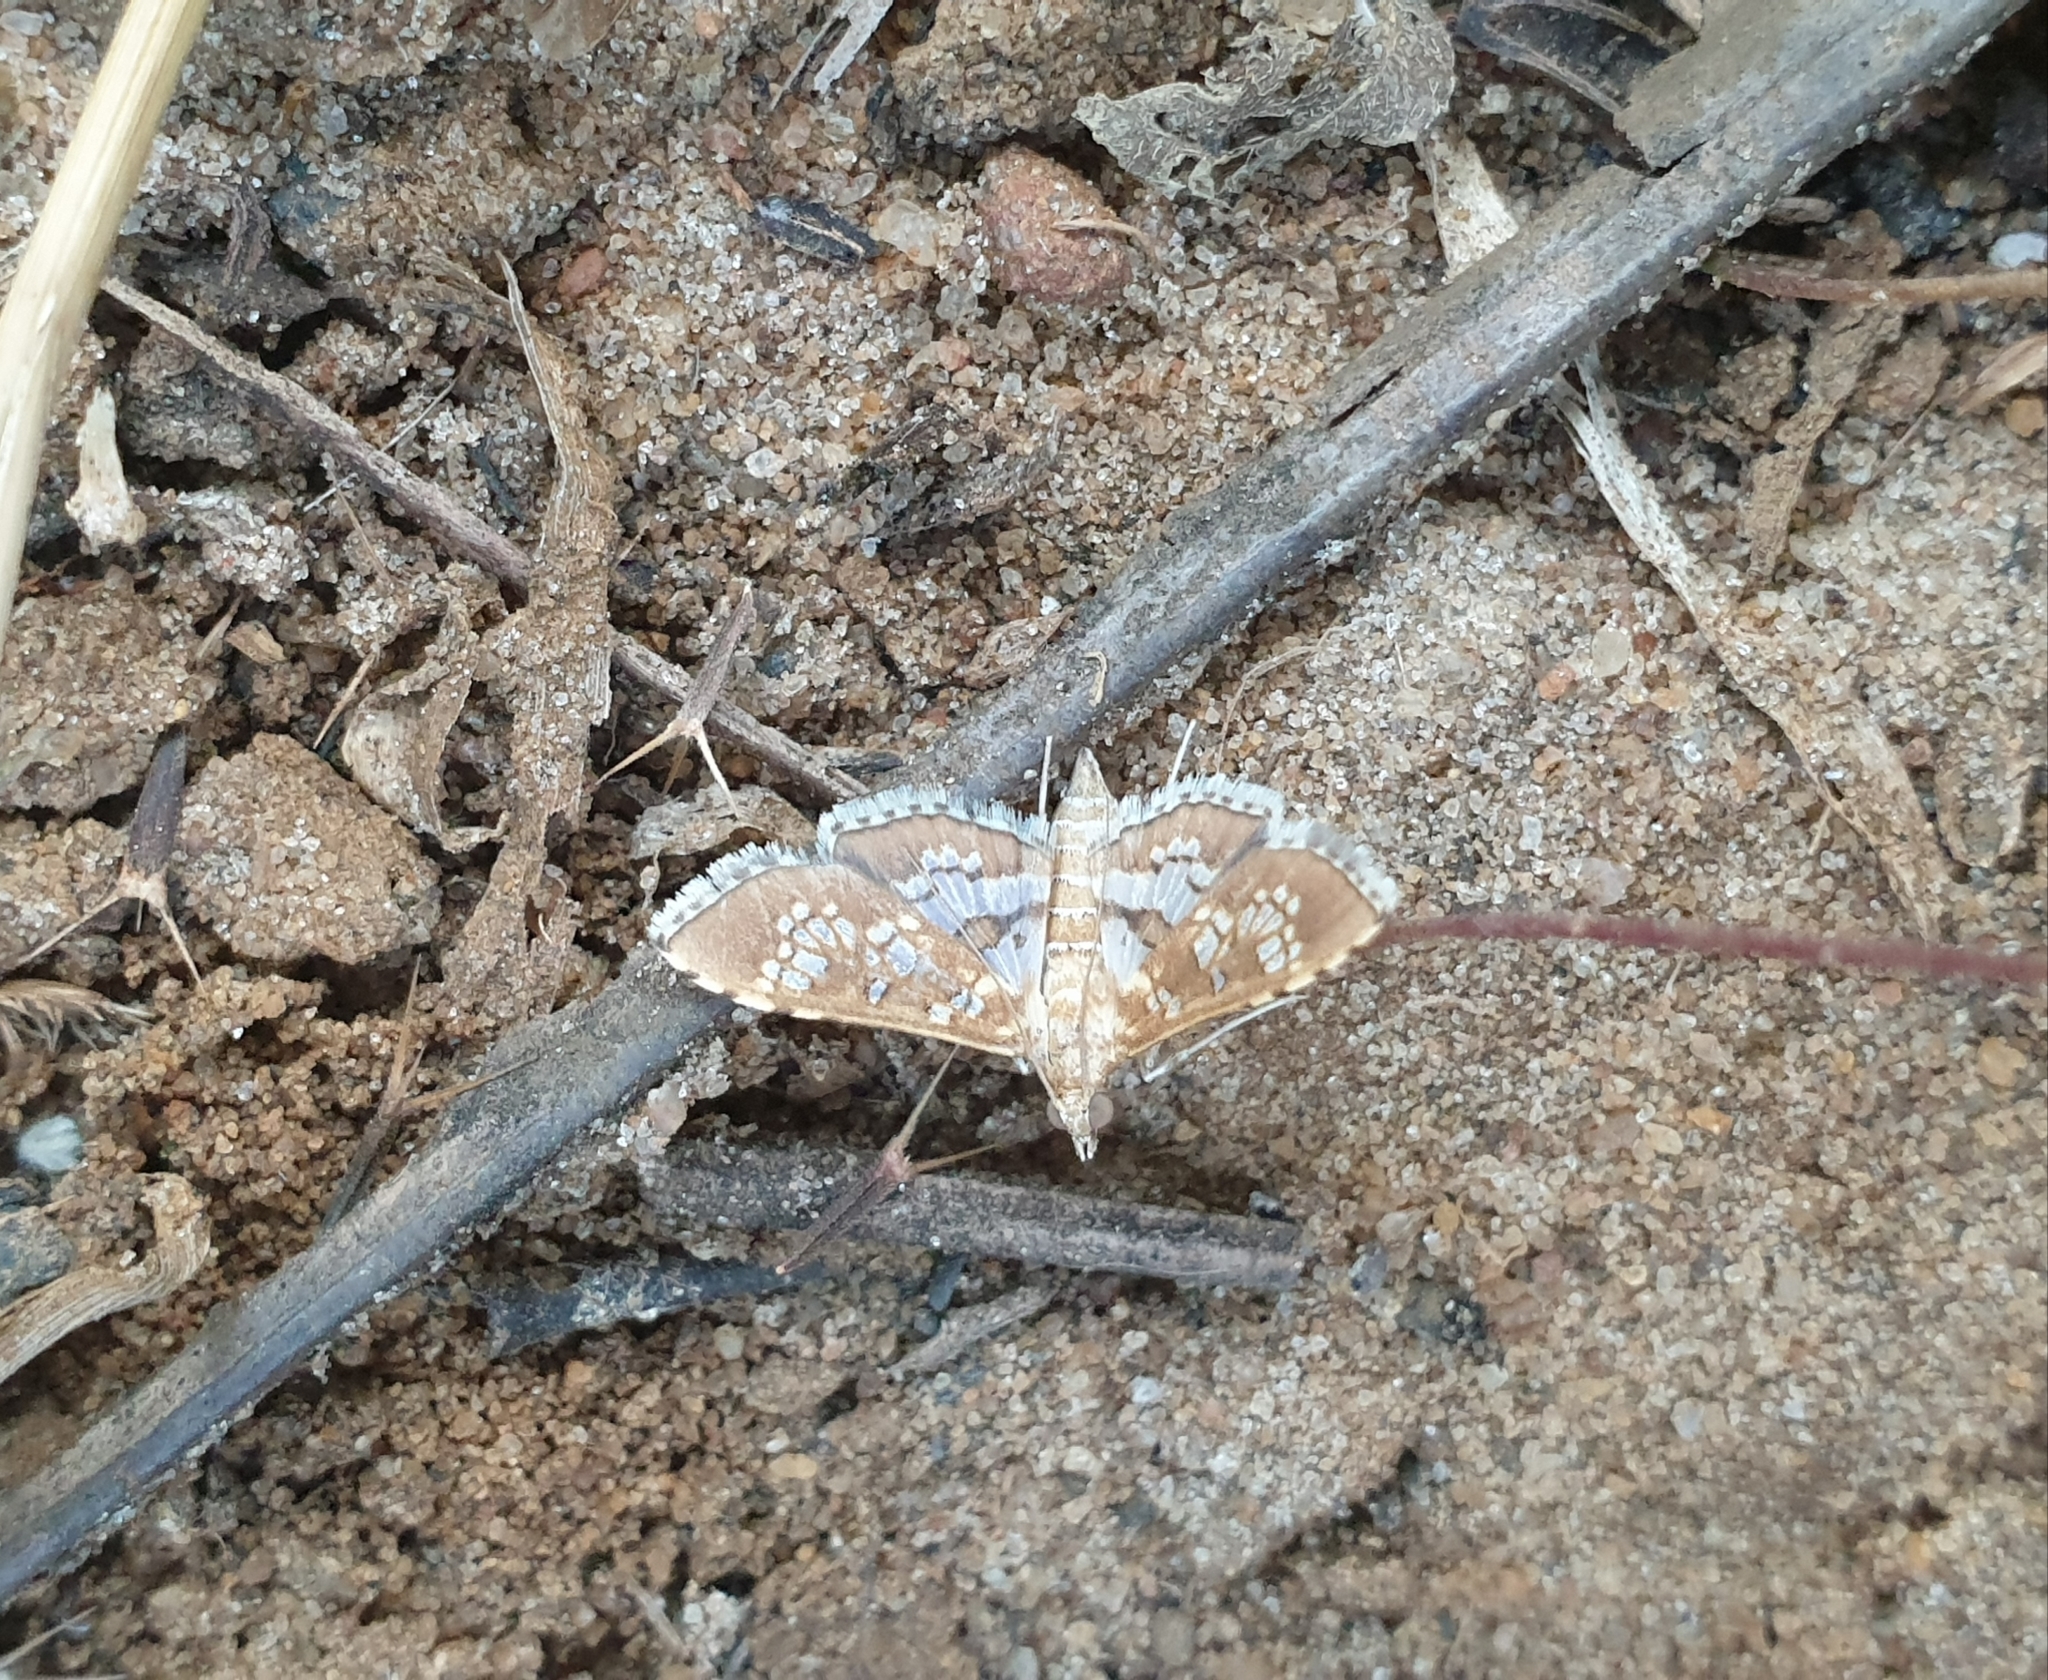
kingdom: Animalia
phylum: Arthropoda
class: Insecta
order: Lepidoptera
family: Crambidae
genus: Sameodes
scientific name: Sameodes cancellalis
